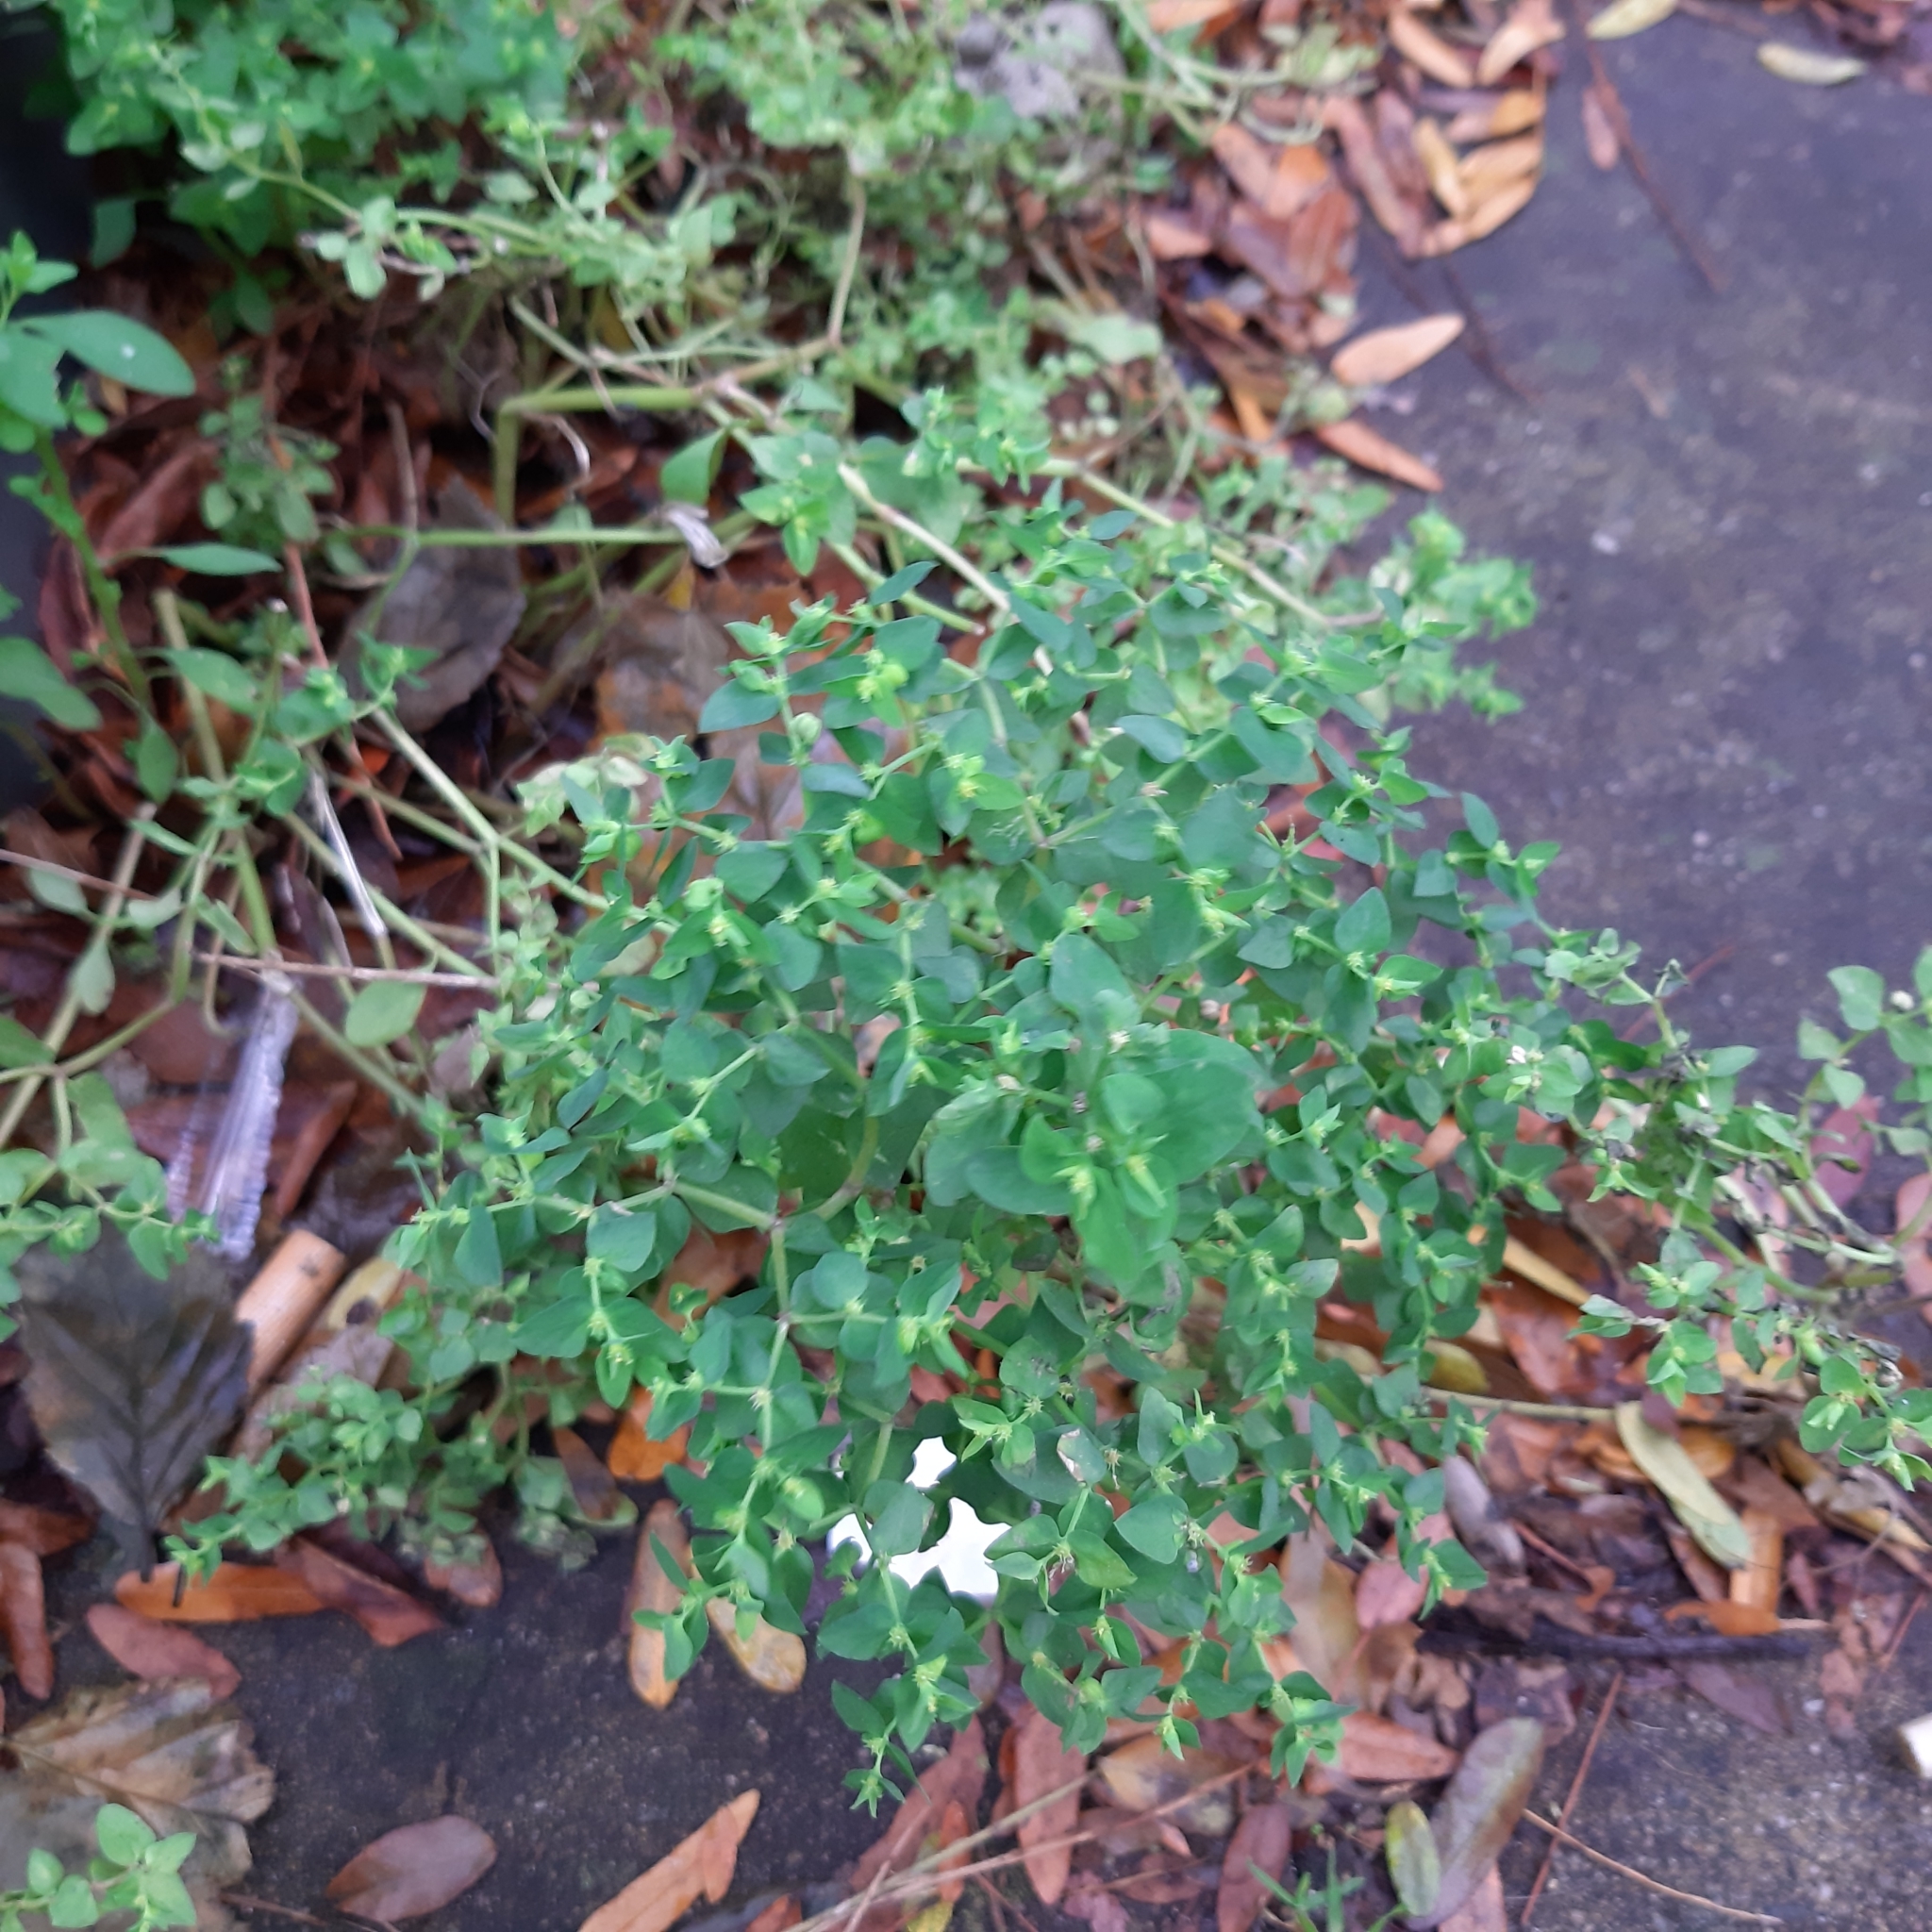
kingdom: Plantae
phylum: Tracheophyta
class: Magnoliopsida
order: Malpighiales
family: Euphorbiaceae
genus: Euphorbia
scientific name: Euphorbia peplus
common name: Petty spurge
